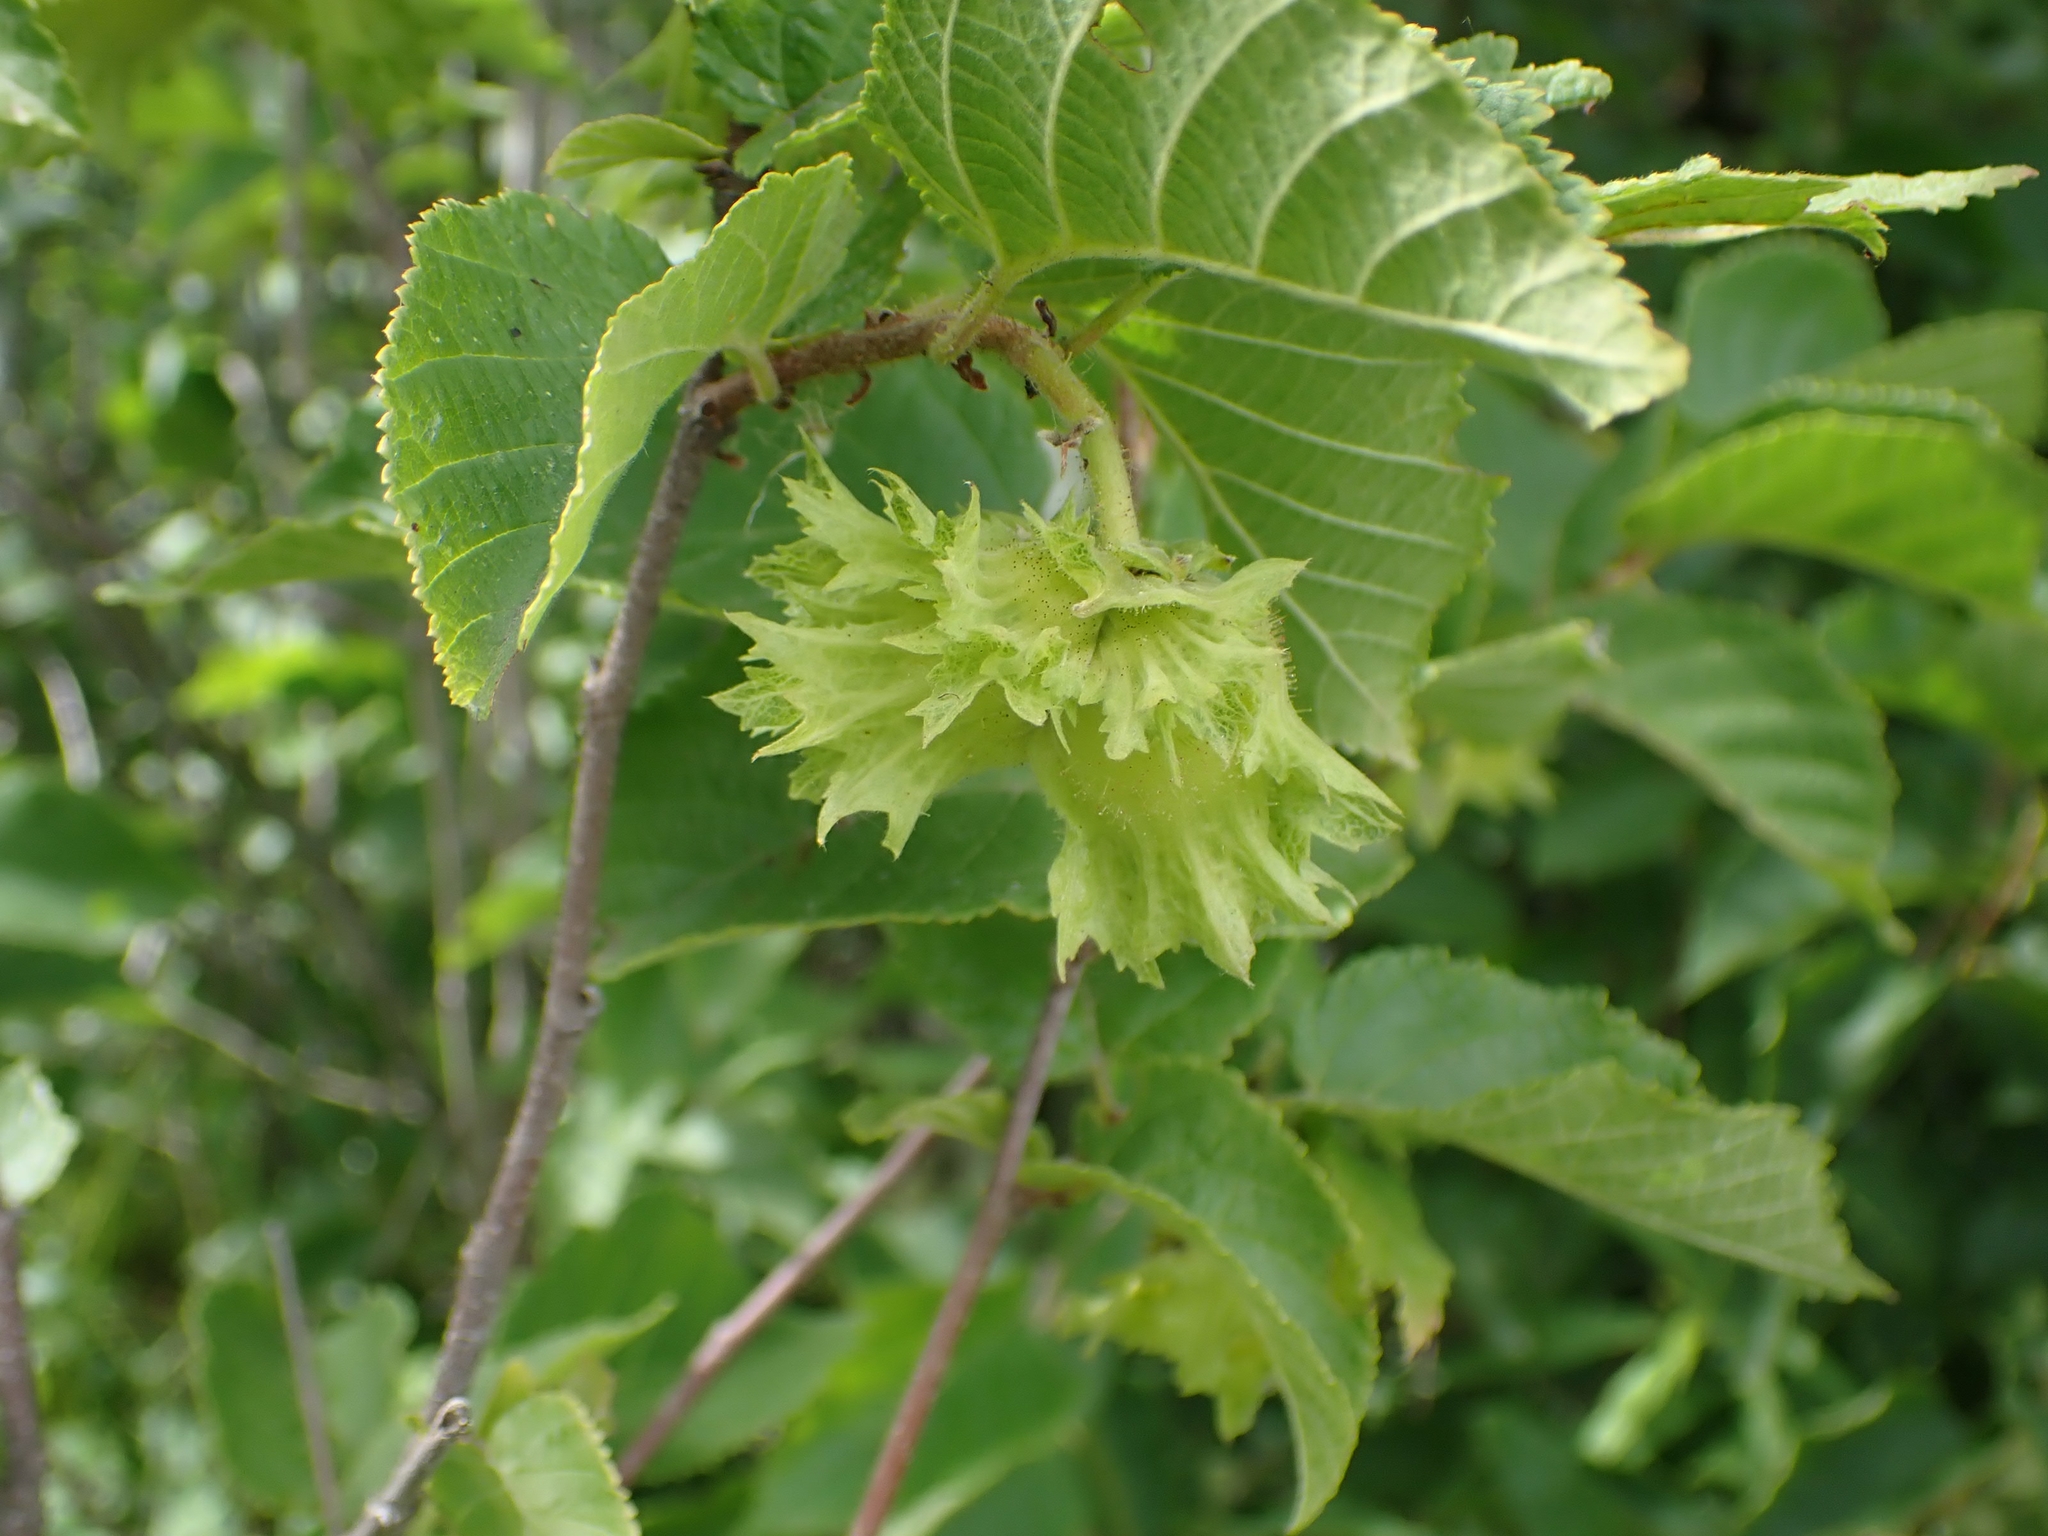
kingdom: Plantae
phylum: Tracheophyta
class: Magnoliopsida
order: Fagales
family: Betulaceae
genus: Corylus
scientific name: Corylus americana
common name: American hazel
